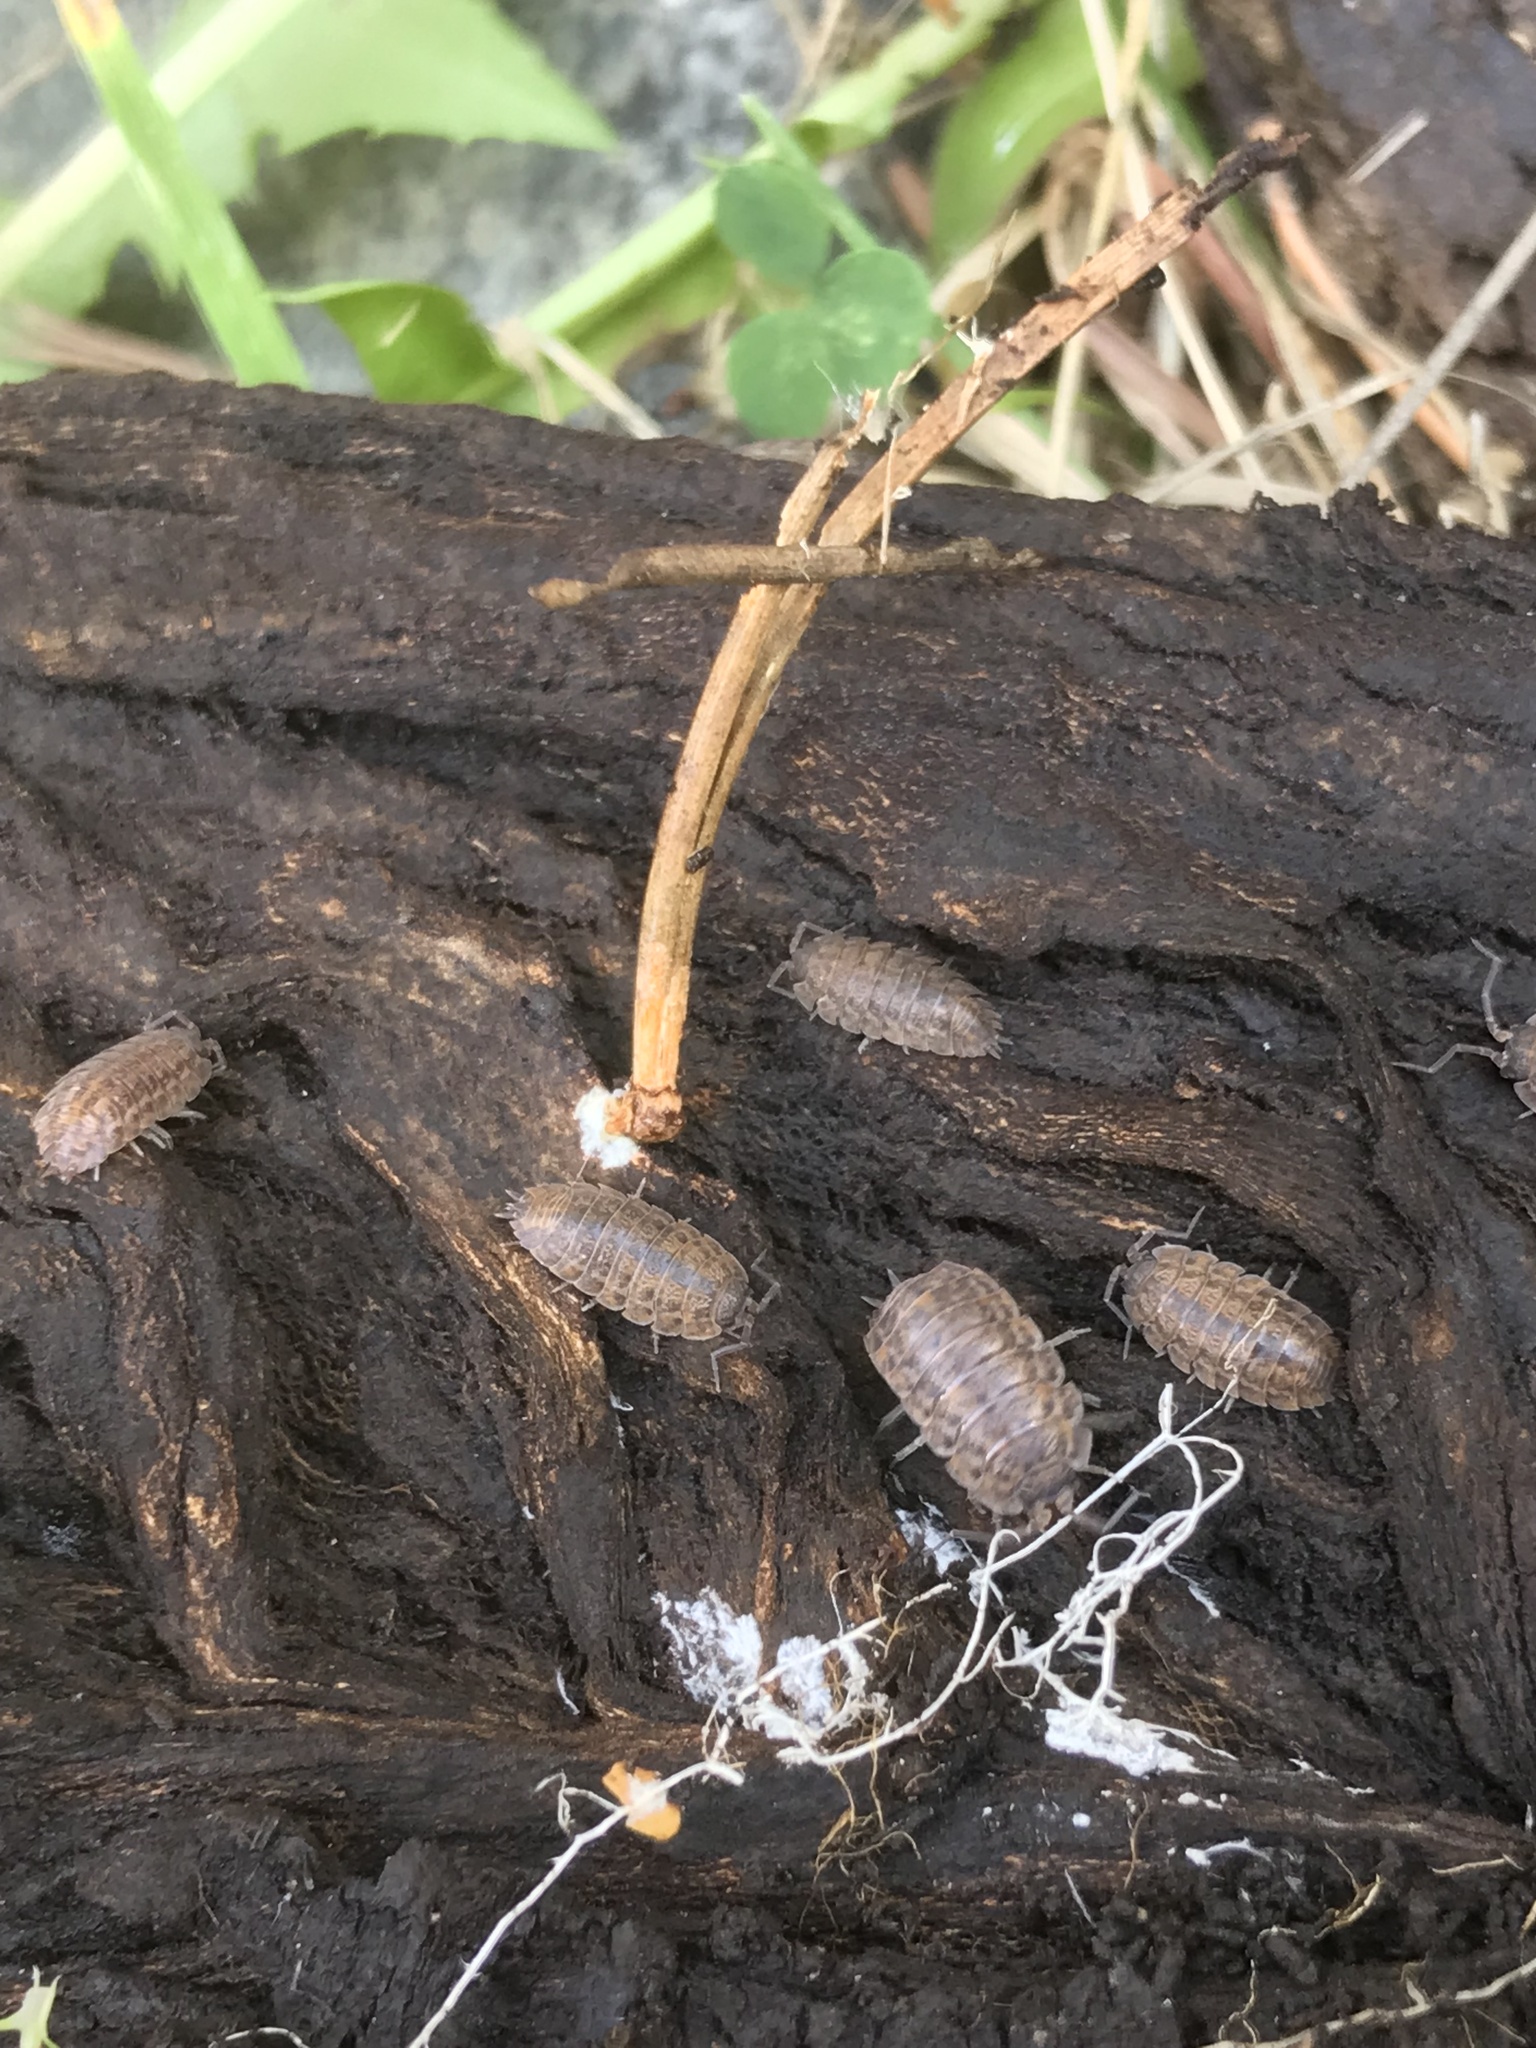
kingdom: Animalia
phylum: Arthropoda
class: Malacostraca
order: Isopoda
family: Trachelipodidae
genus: Trachelipus
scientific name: Trachelipus rathkii
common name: Isopod
